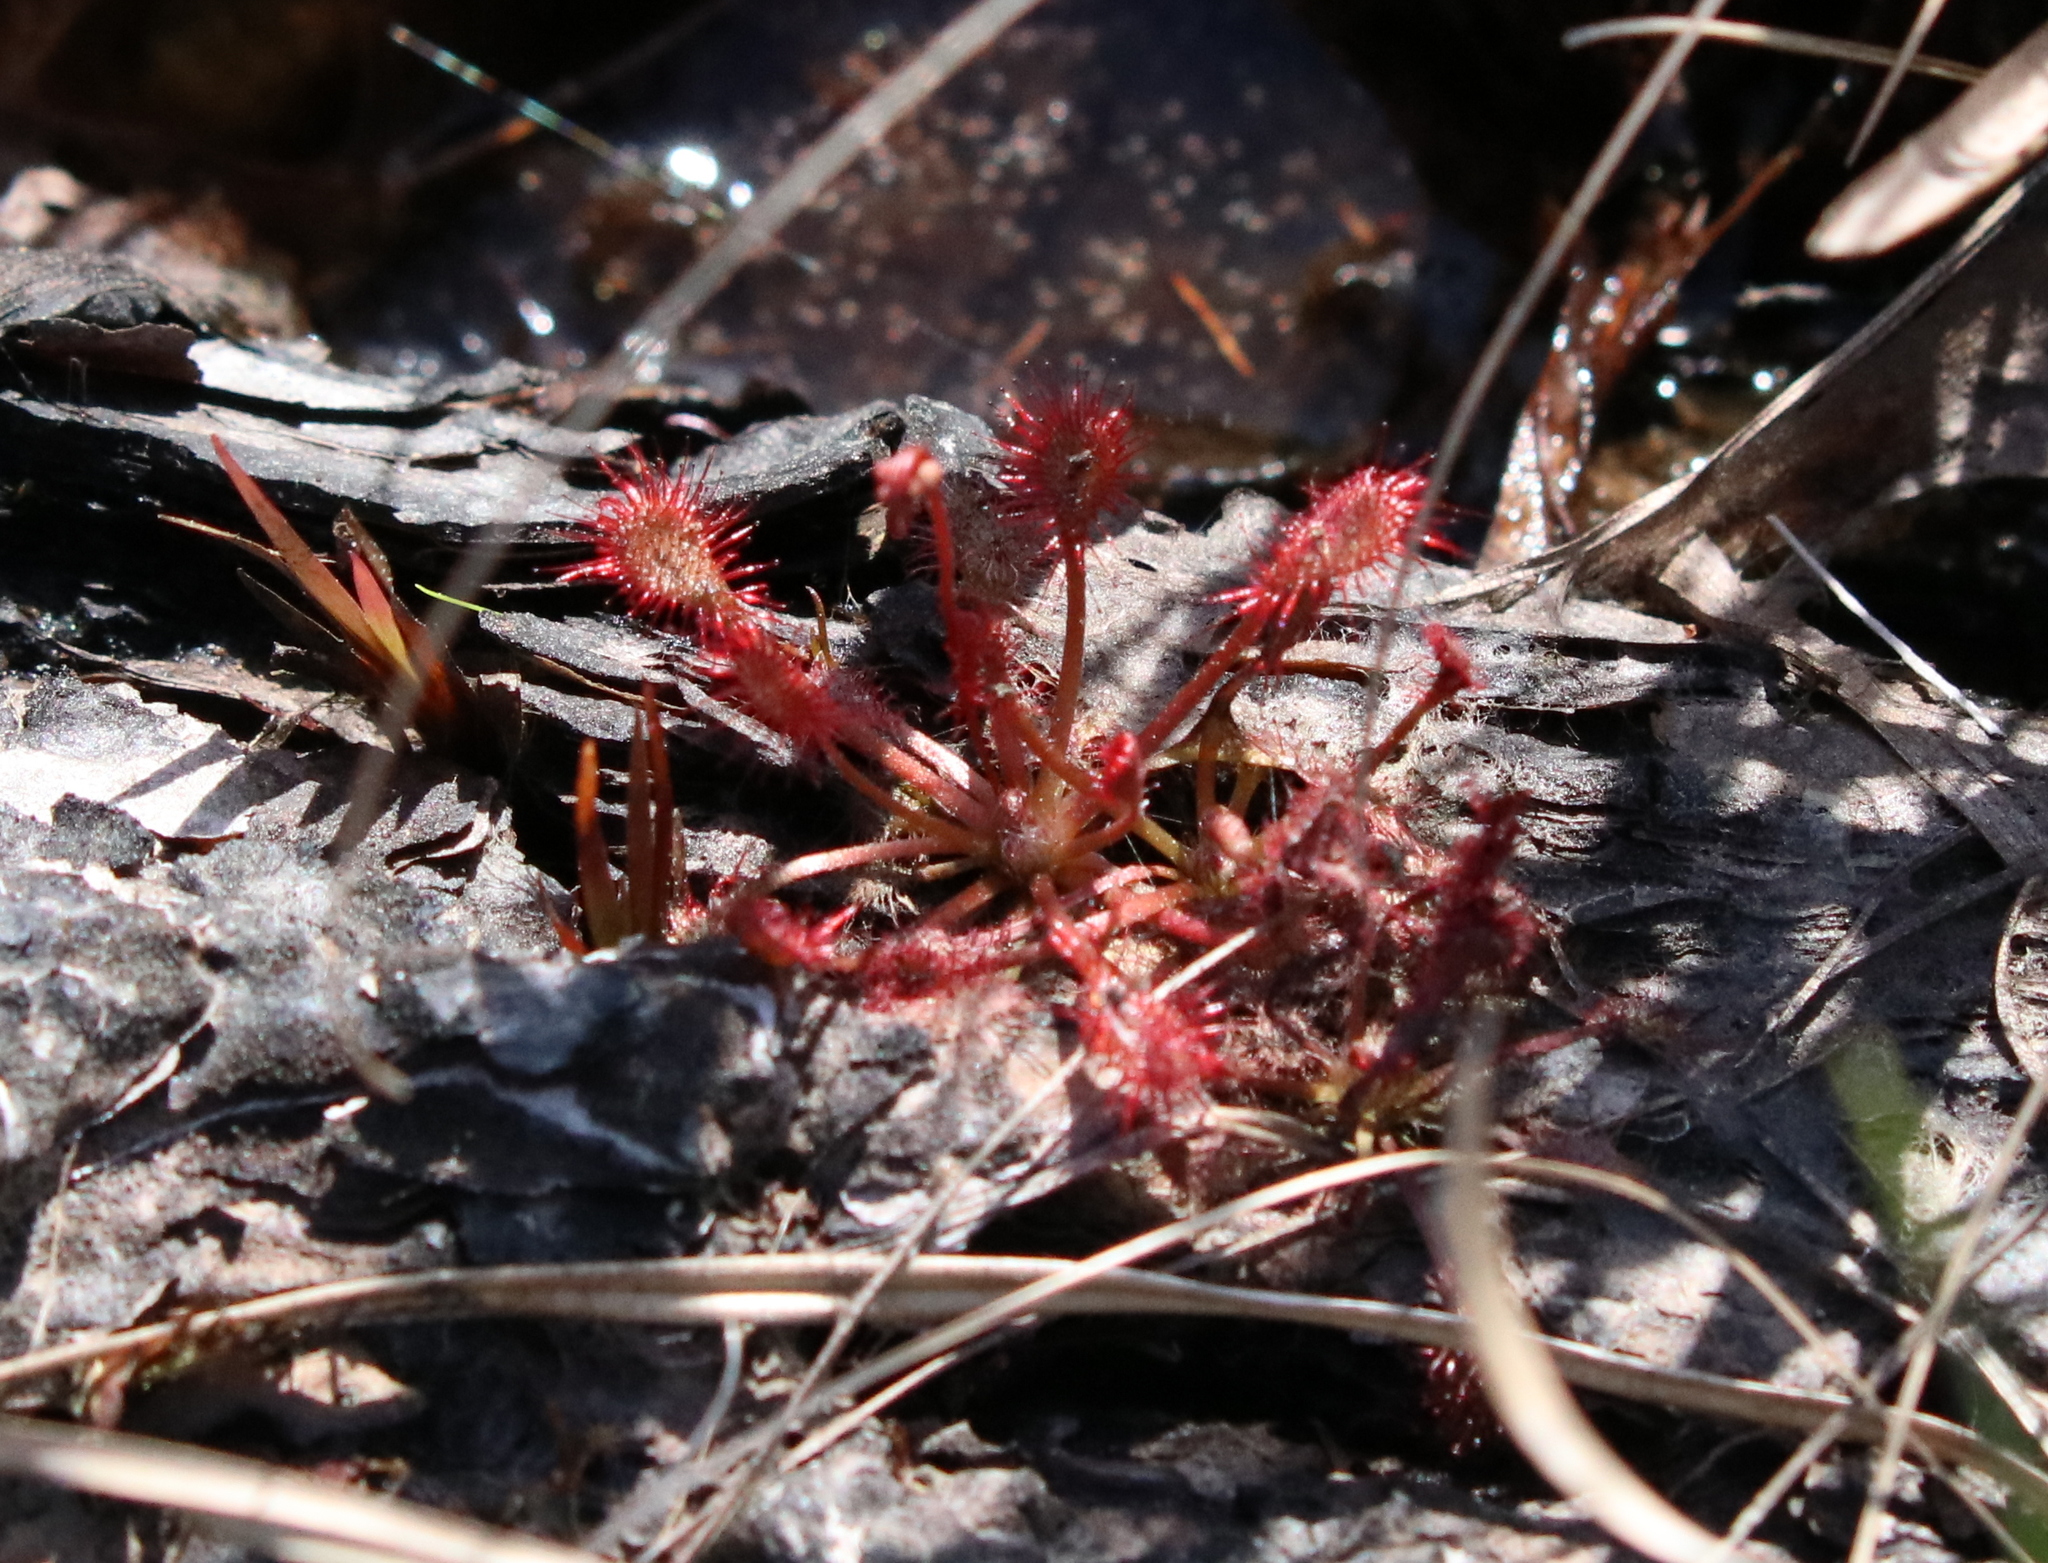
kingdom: Plantae
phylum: Tracheophyta
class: Magnoliopsida
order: Caryophyllales
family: Droseraceae
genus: Drosera
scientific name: Drosera capillaris
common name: Pink sundew
